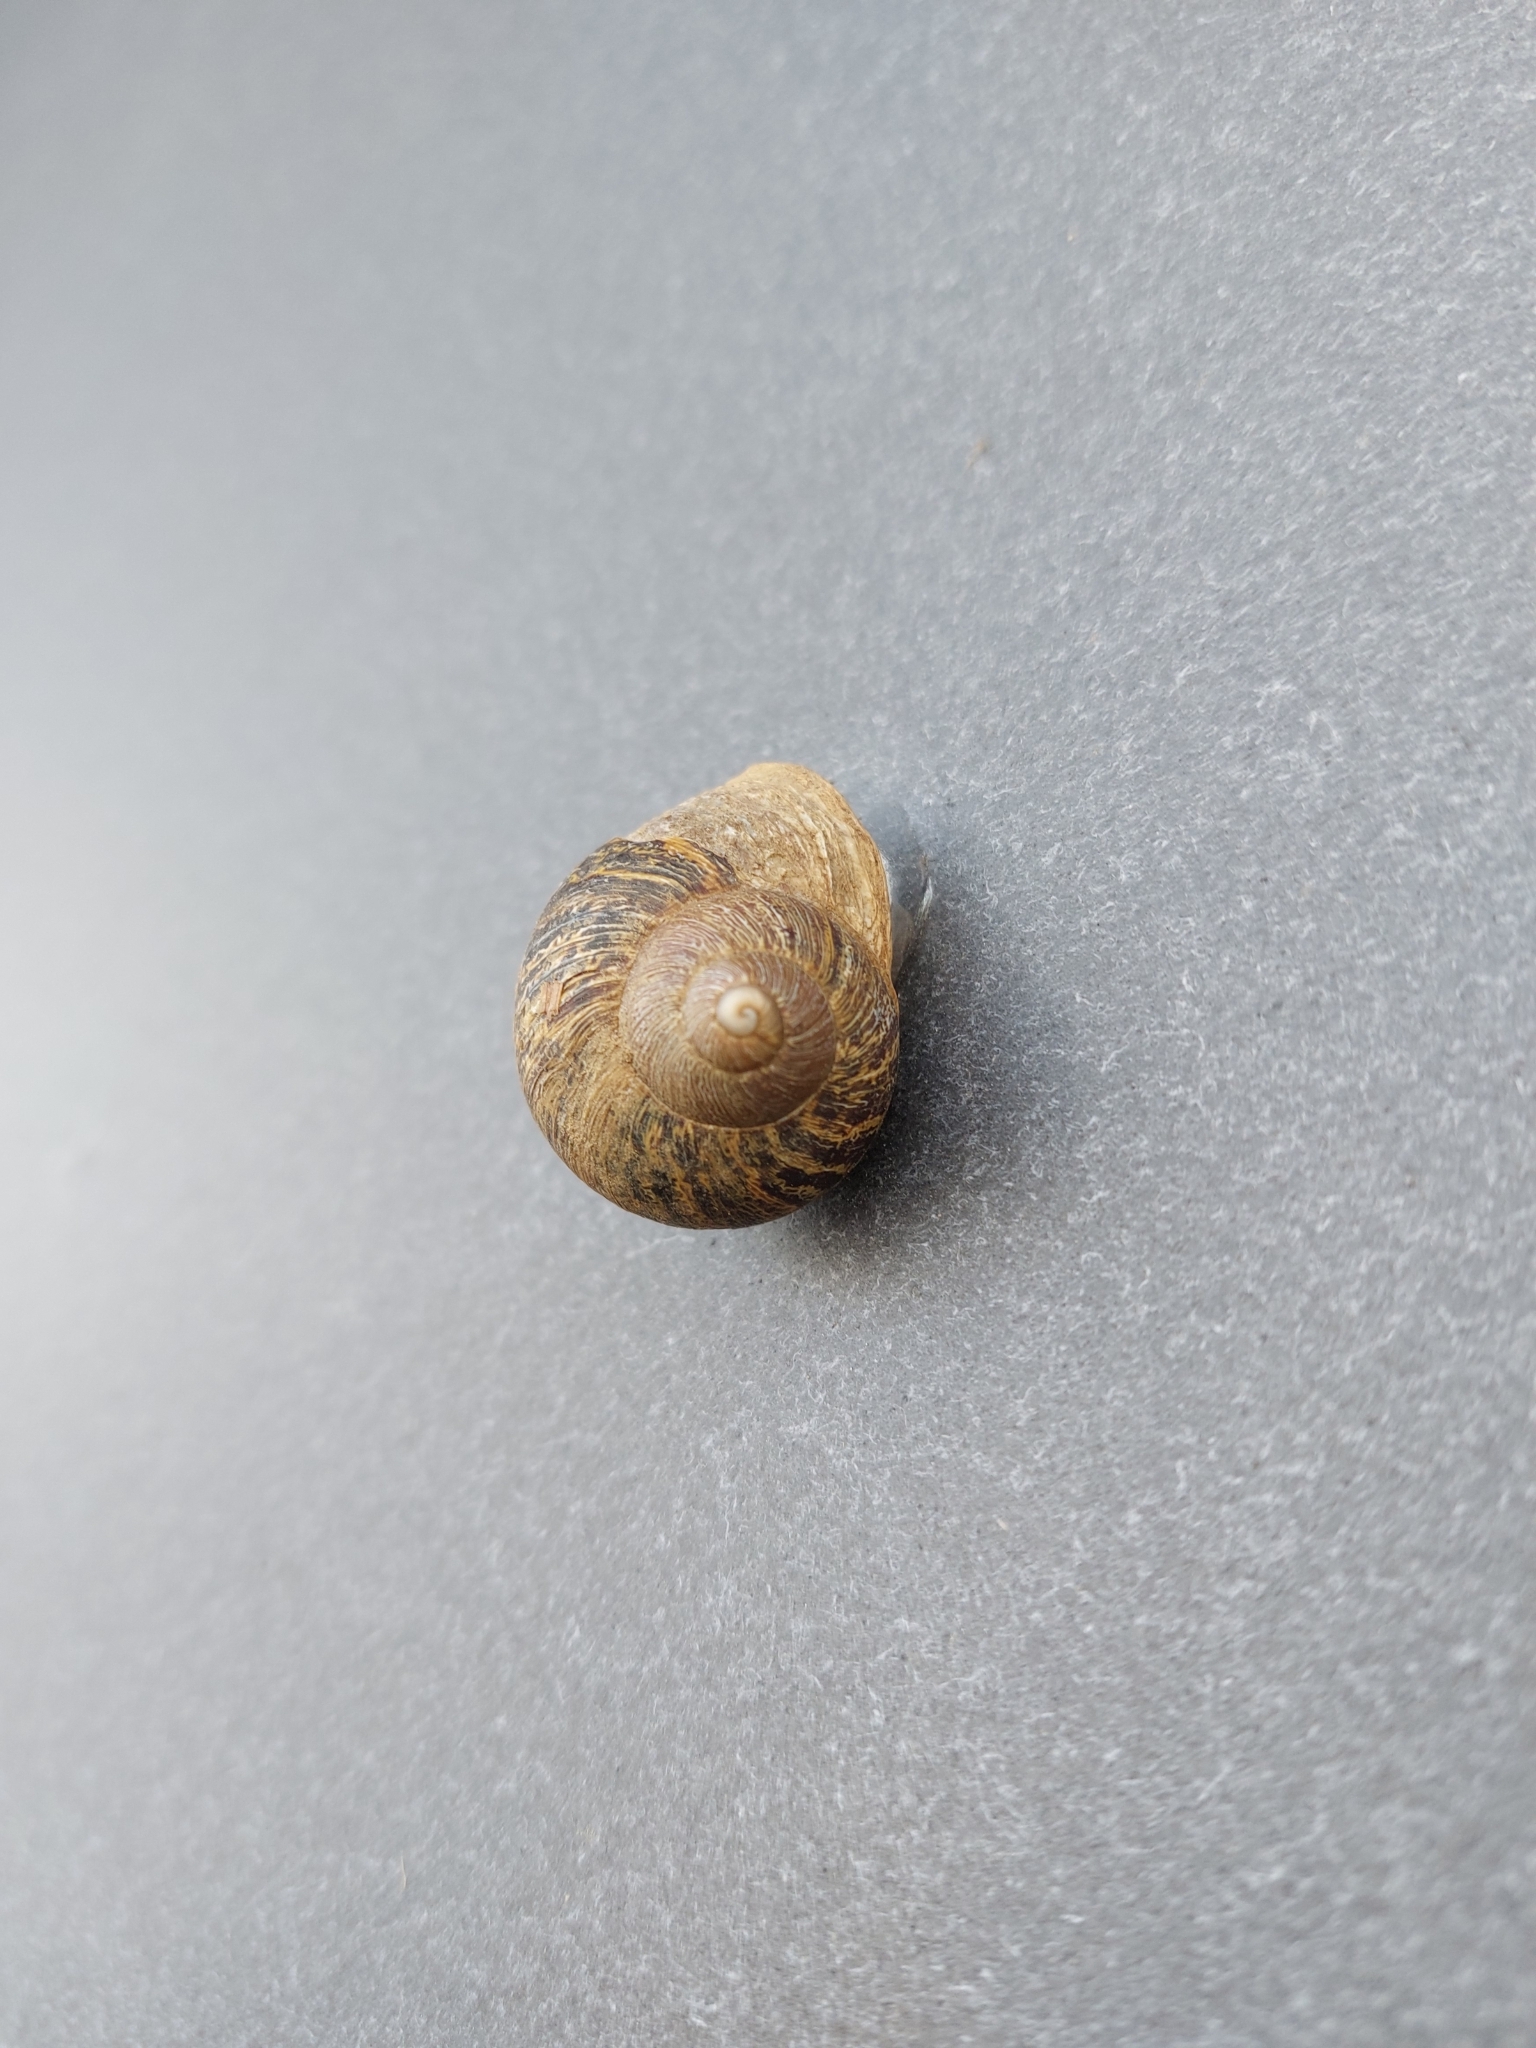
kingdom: Animalia
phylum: Mollusca
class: Gastropoda
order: Stylommatophora
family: Helicidae
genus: Cornu
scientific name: Cornu aspersum
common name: Brown garden snail
